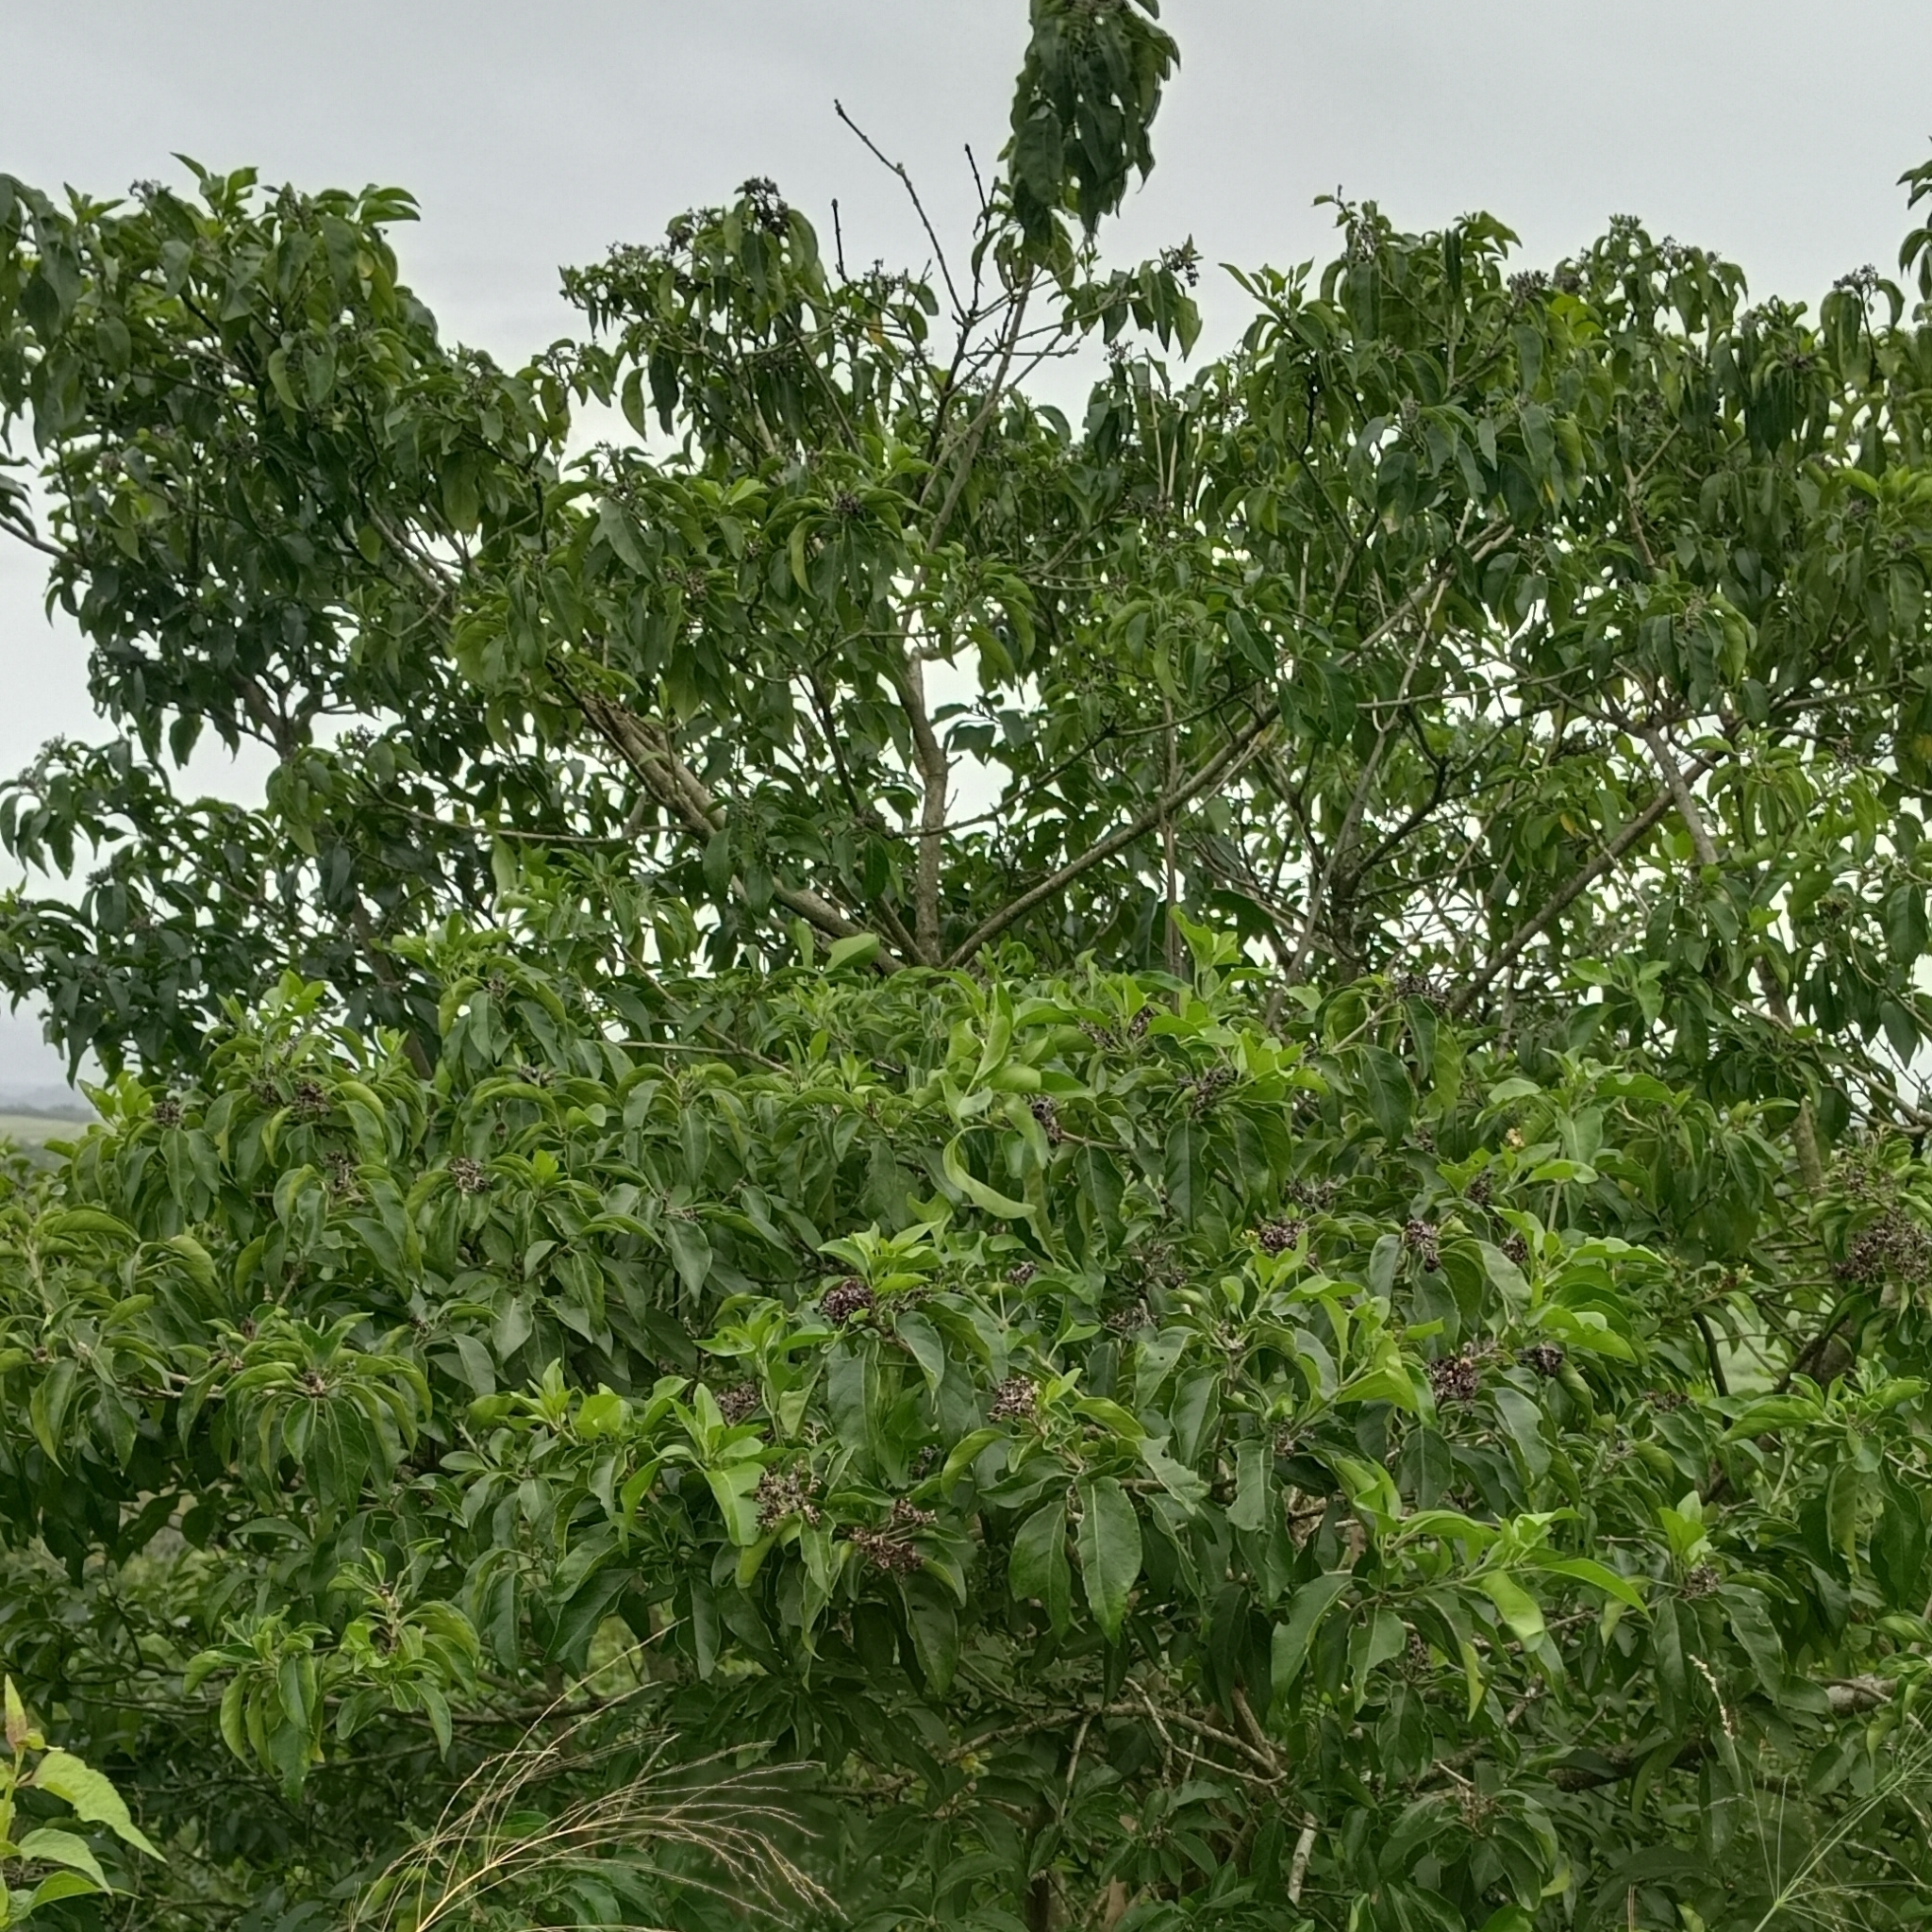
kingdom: Plantae
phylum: Tracheophyta
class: Magnoliopsida
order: Lamiales
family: Lamiaceae
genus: Volkameria
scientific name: Volkameria glabra
